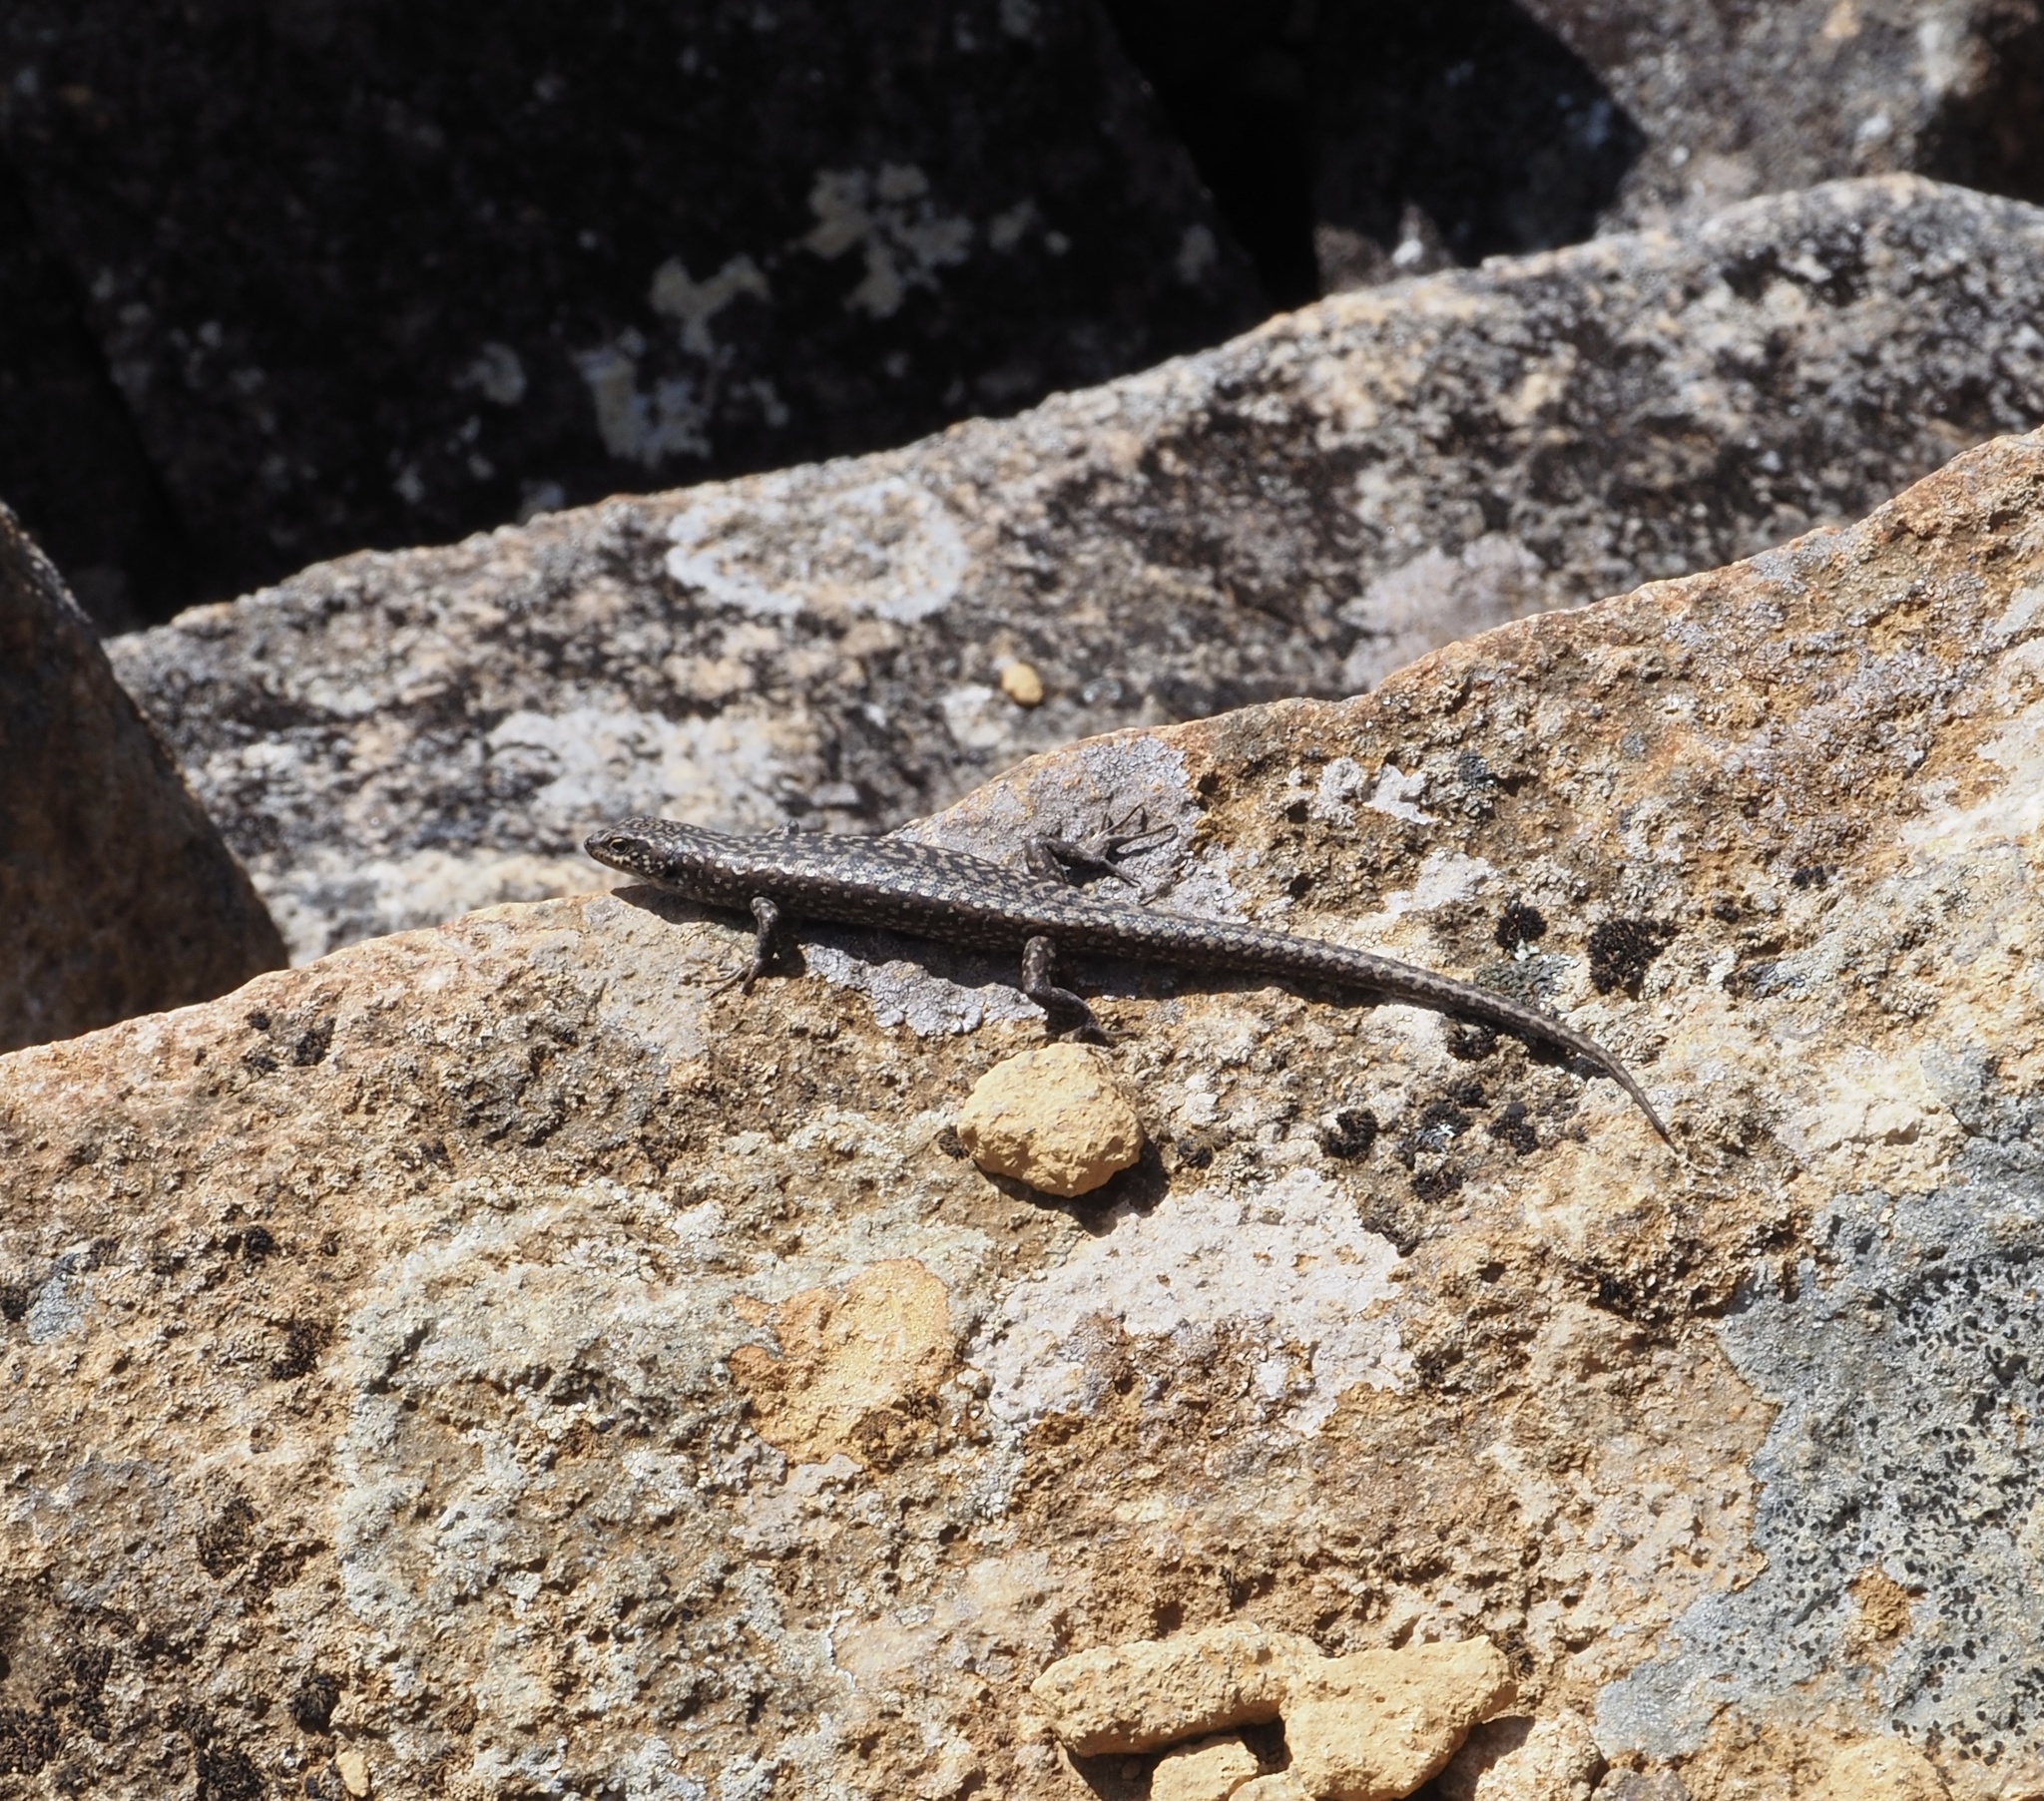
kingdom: Animalia
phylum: Chordata
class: Squamata
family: Scincidae
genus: Carinascincus
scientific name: Carinascincus ocellatus
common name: Ocellated cool-skink
